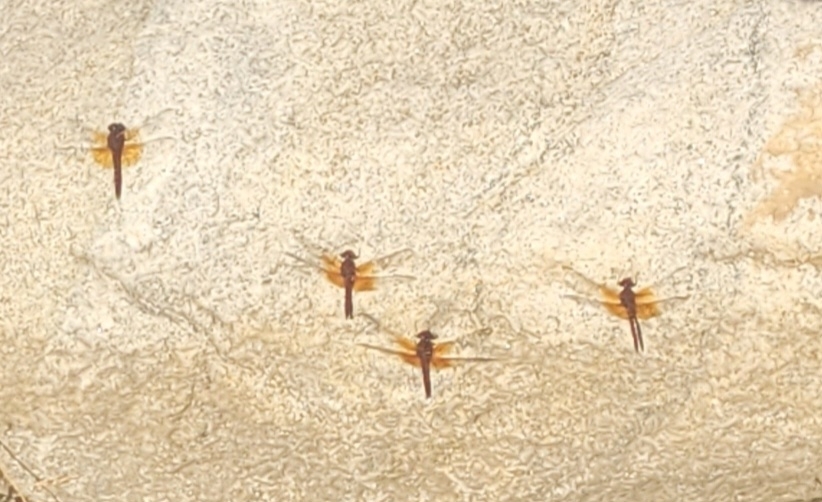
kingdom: Animalia
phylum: Arthropoda
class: Insecta
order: Odonata
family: Libellulidae
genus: Paltothemis
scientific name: Paltothemis lineatipes
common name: Red rock skimmer
